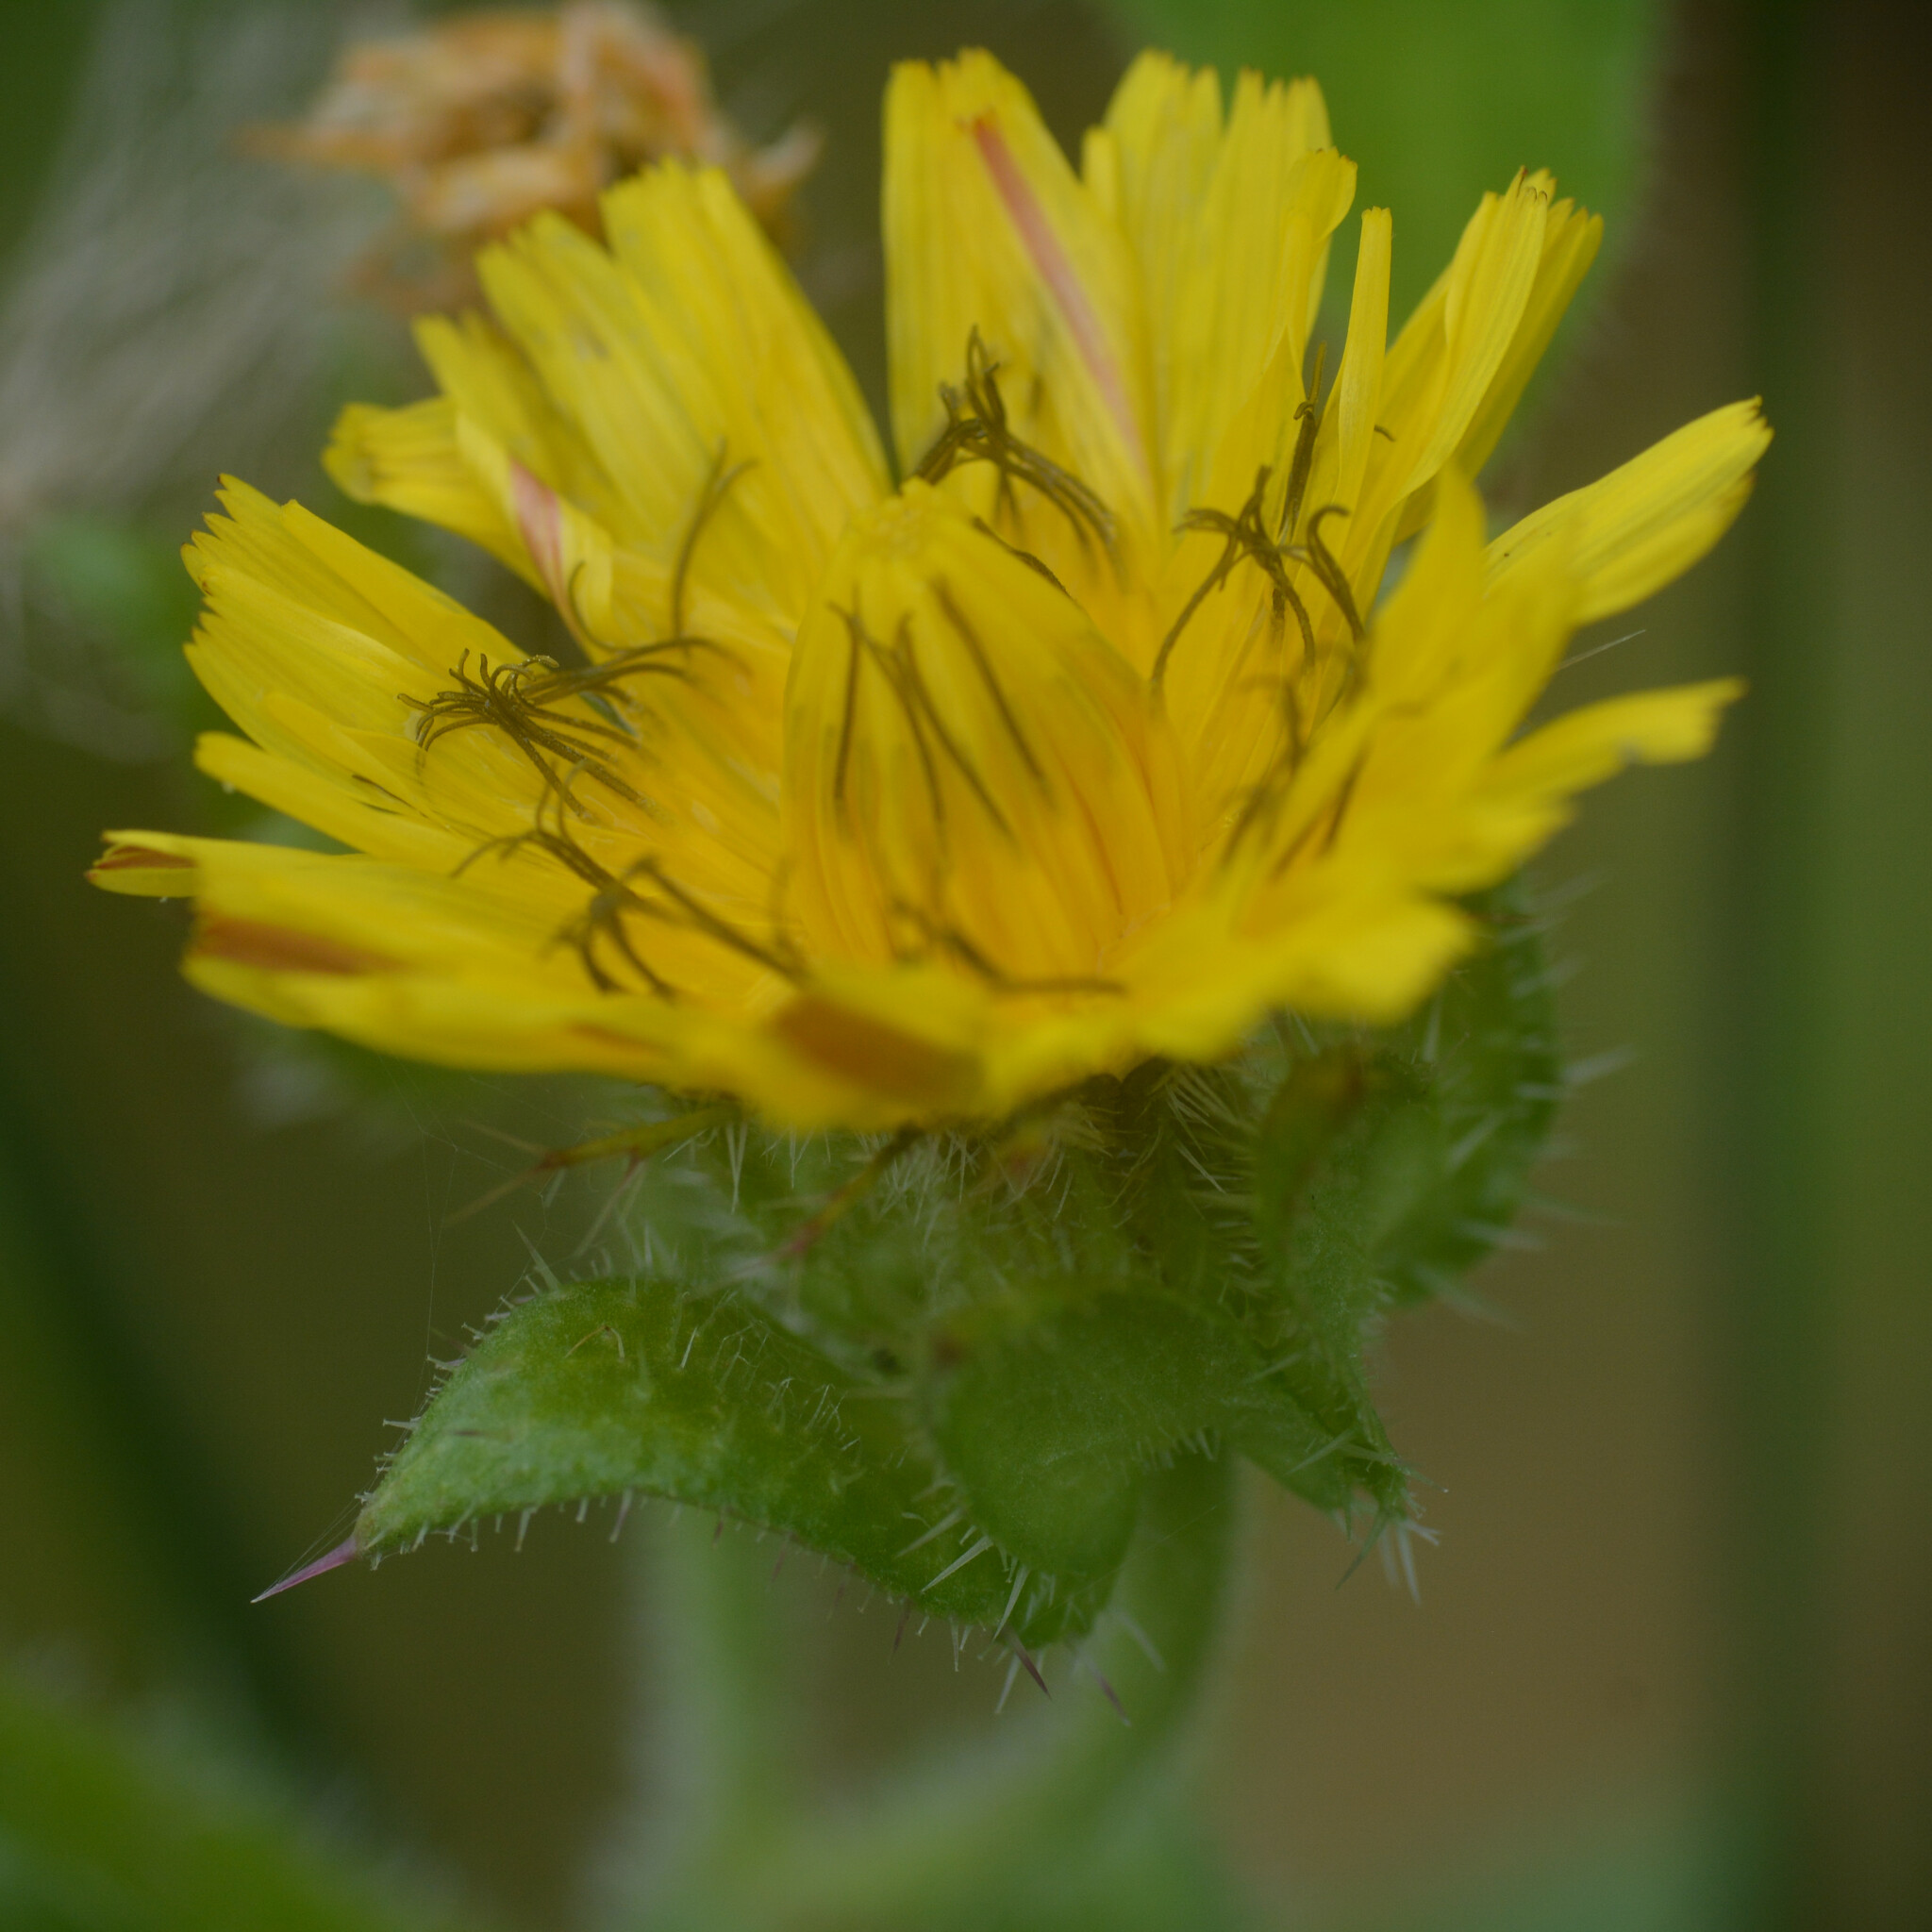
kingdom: Plantae
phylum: Tracheophyta
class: Magnoliopsida
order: Asterales
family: Asteraceae
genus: Helminthotheca
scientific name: Helminthotheca echioides
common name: Ox-tongue
